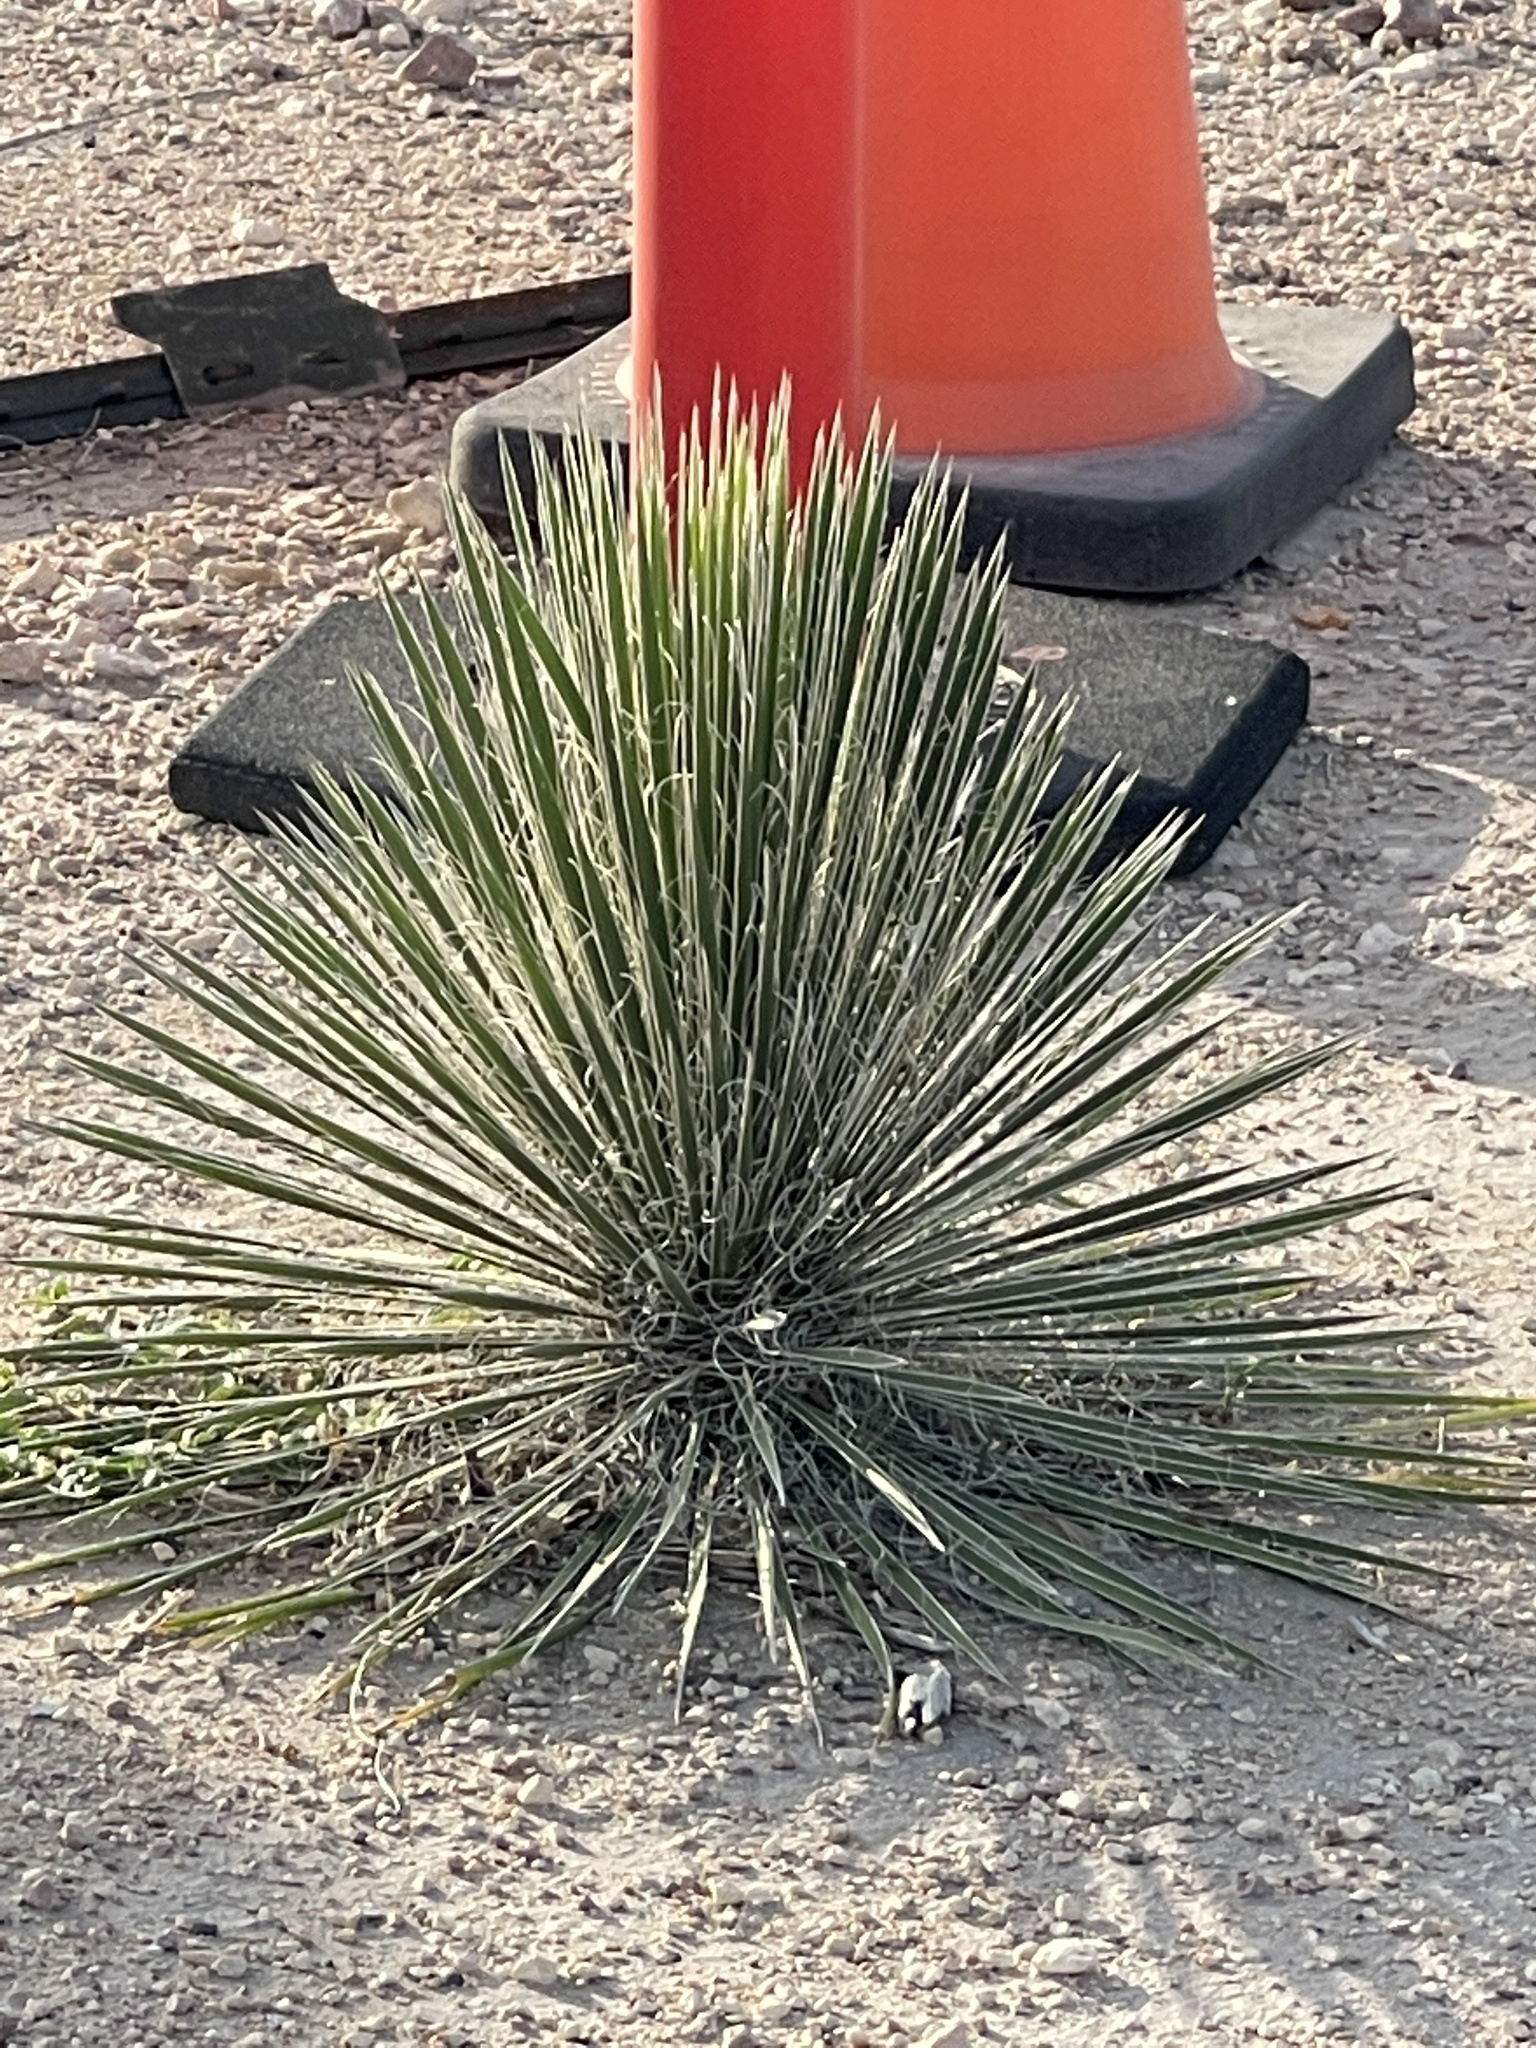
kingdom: Plantae
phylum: Tracheophyta
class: Liliopsida
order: Asparagales
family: Asparagaceae
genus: Yucca
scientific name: Yucca elata
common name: Palmella
